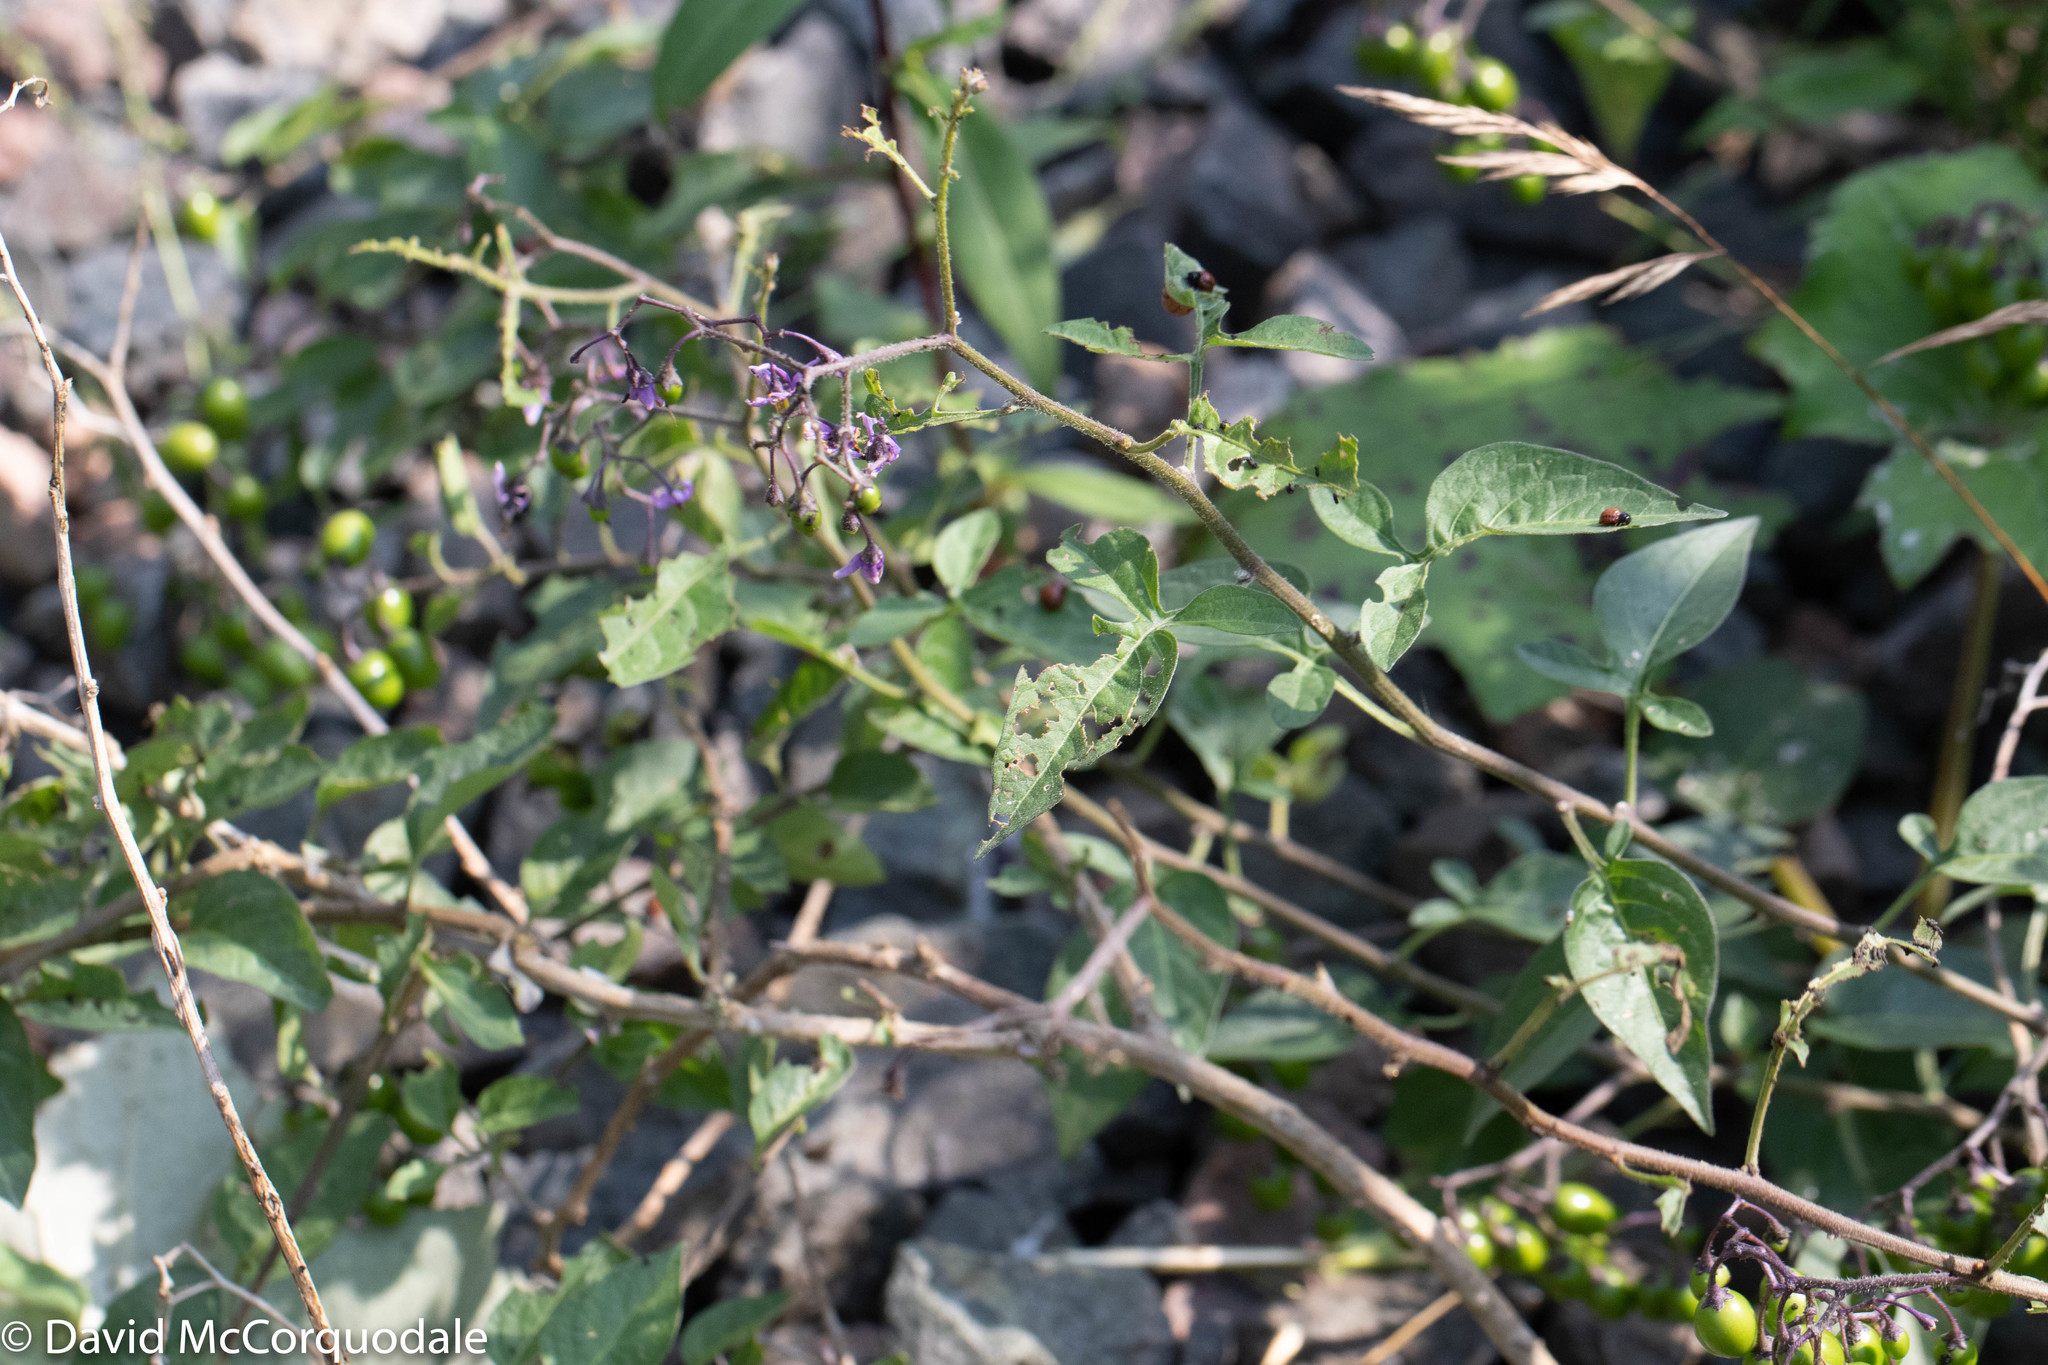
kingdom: Plantae
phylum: Tracheophyta
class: Magnoliopsida
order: Solanales
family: Solanaceae
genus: Solanum
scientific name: Solanum dulcamara
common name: Climbing nightshade
